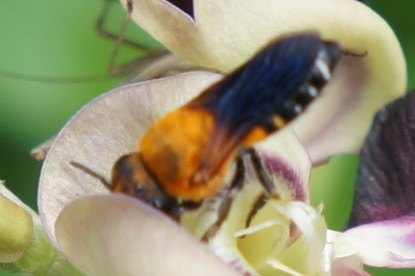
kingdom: Animalia
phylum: Arthropoda
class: Insecta
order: Hymenoptera
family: Megachilidae
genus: Megachile
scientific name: Megachile umbripennis
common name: Shadow-winged resin bee
